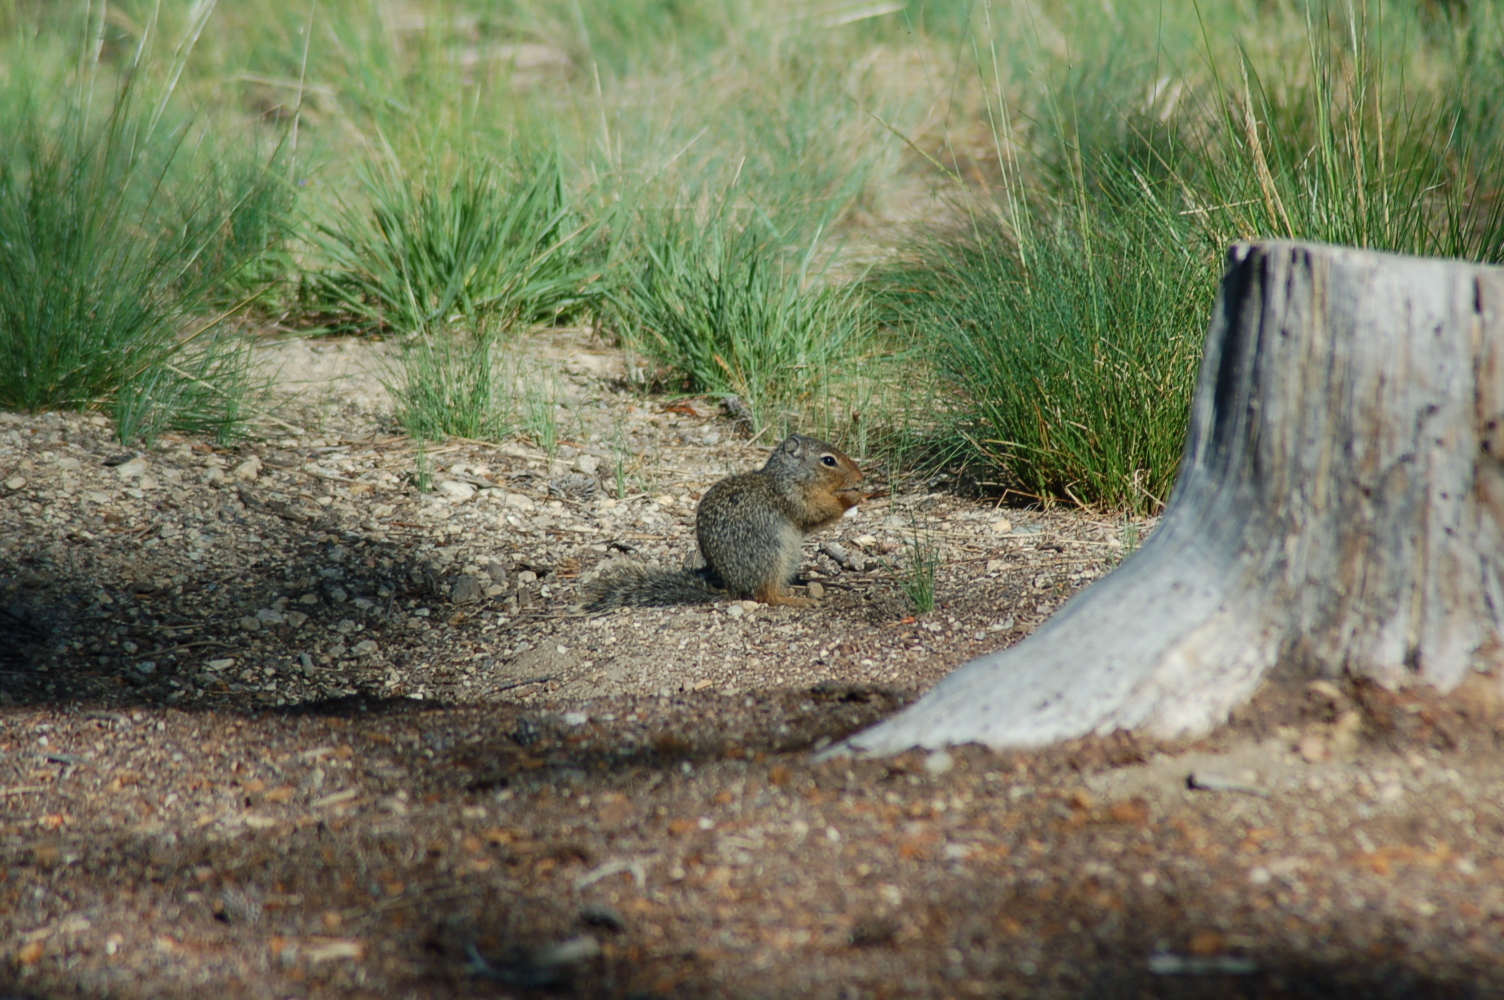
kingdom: Animalia
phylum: Chordata
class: Mammalia
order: Rodentia
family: Sciuridae
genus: Urocitellus
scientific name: Urocitellus columbianus
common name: Columbian ground squirrel
